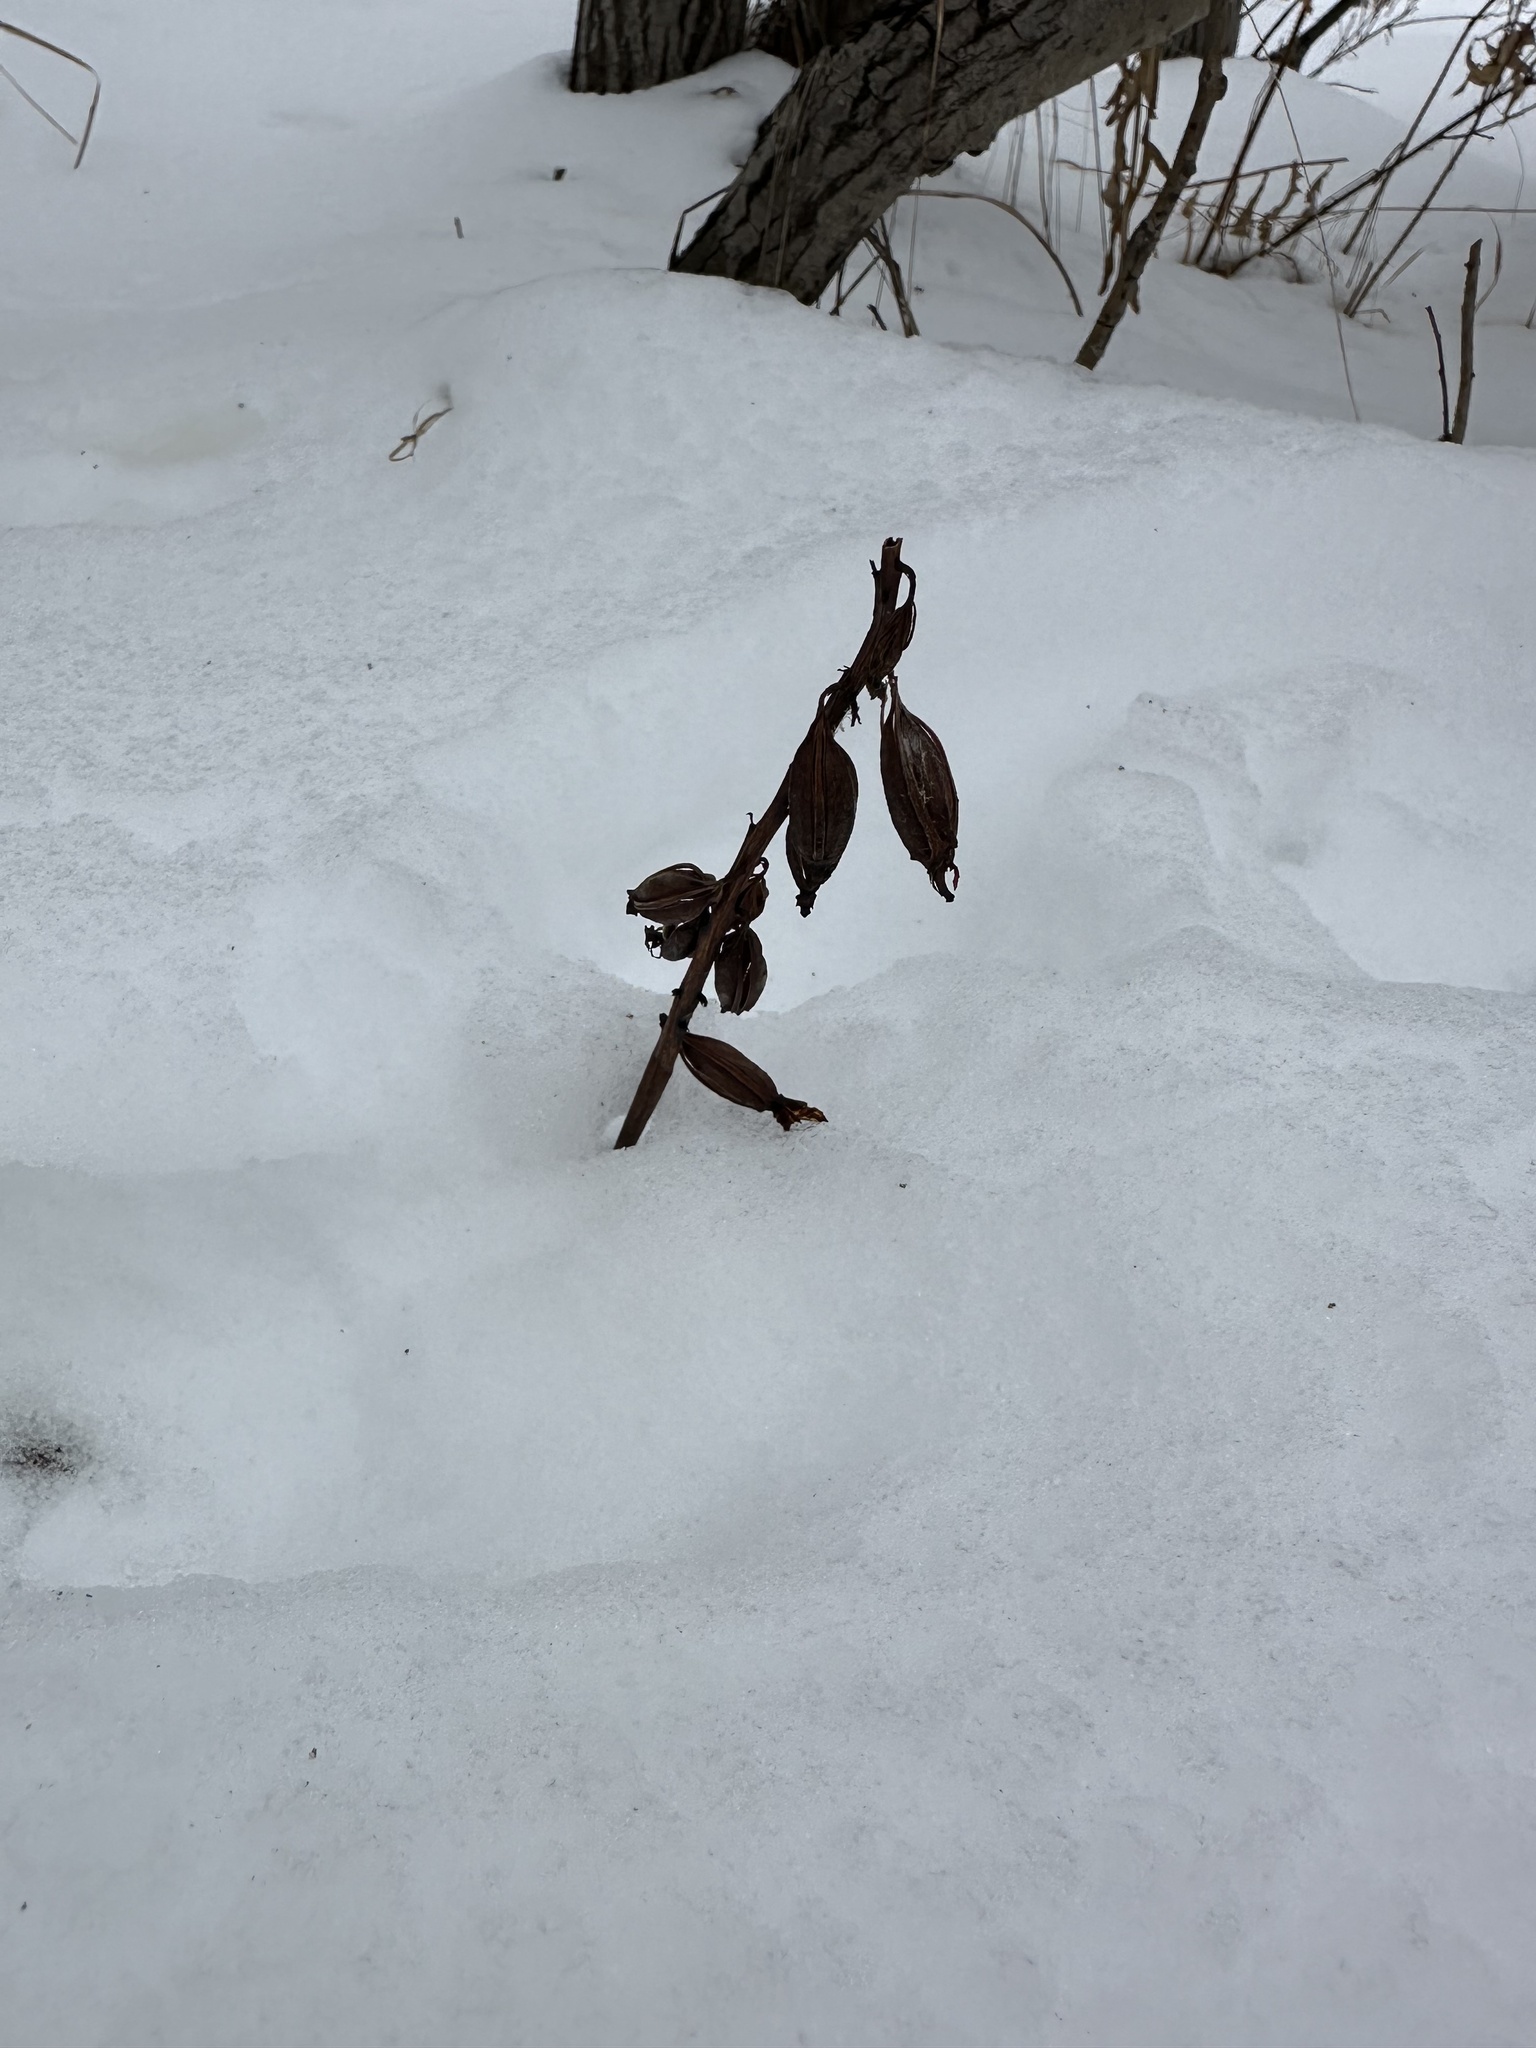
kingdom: Plantae
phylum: Tracheophyta
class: Liliopsida
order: Asparagales
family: Orchidaceae
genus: Corallorhiza
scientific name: Corallorhiza maculata
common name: Spotted coralroot
